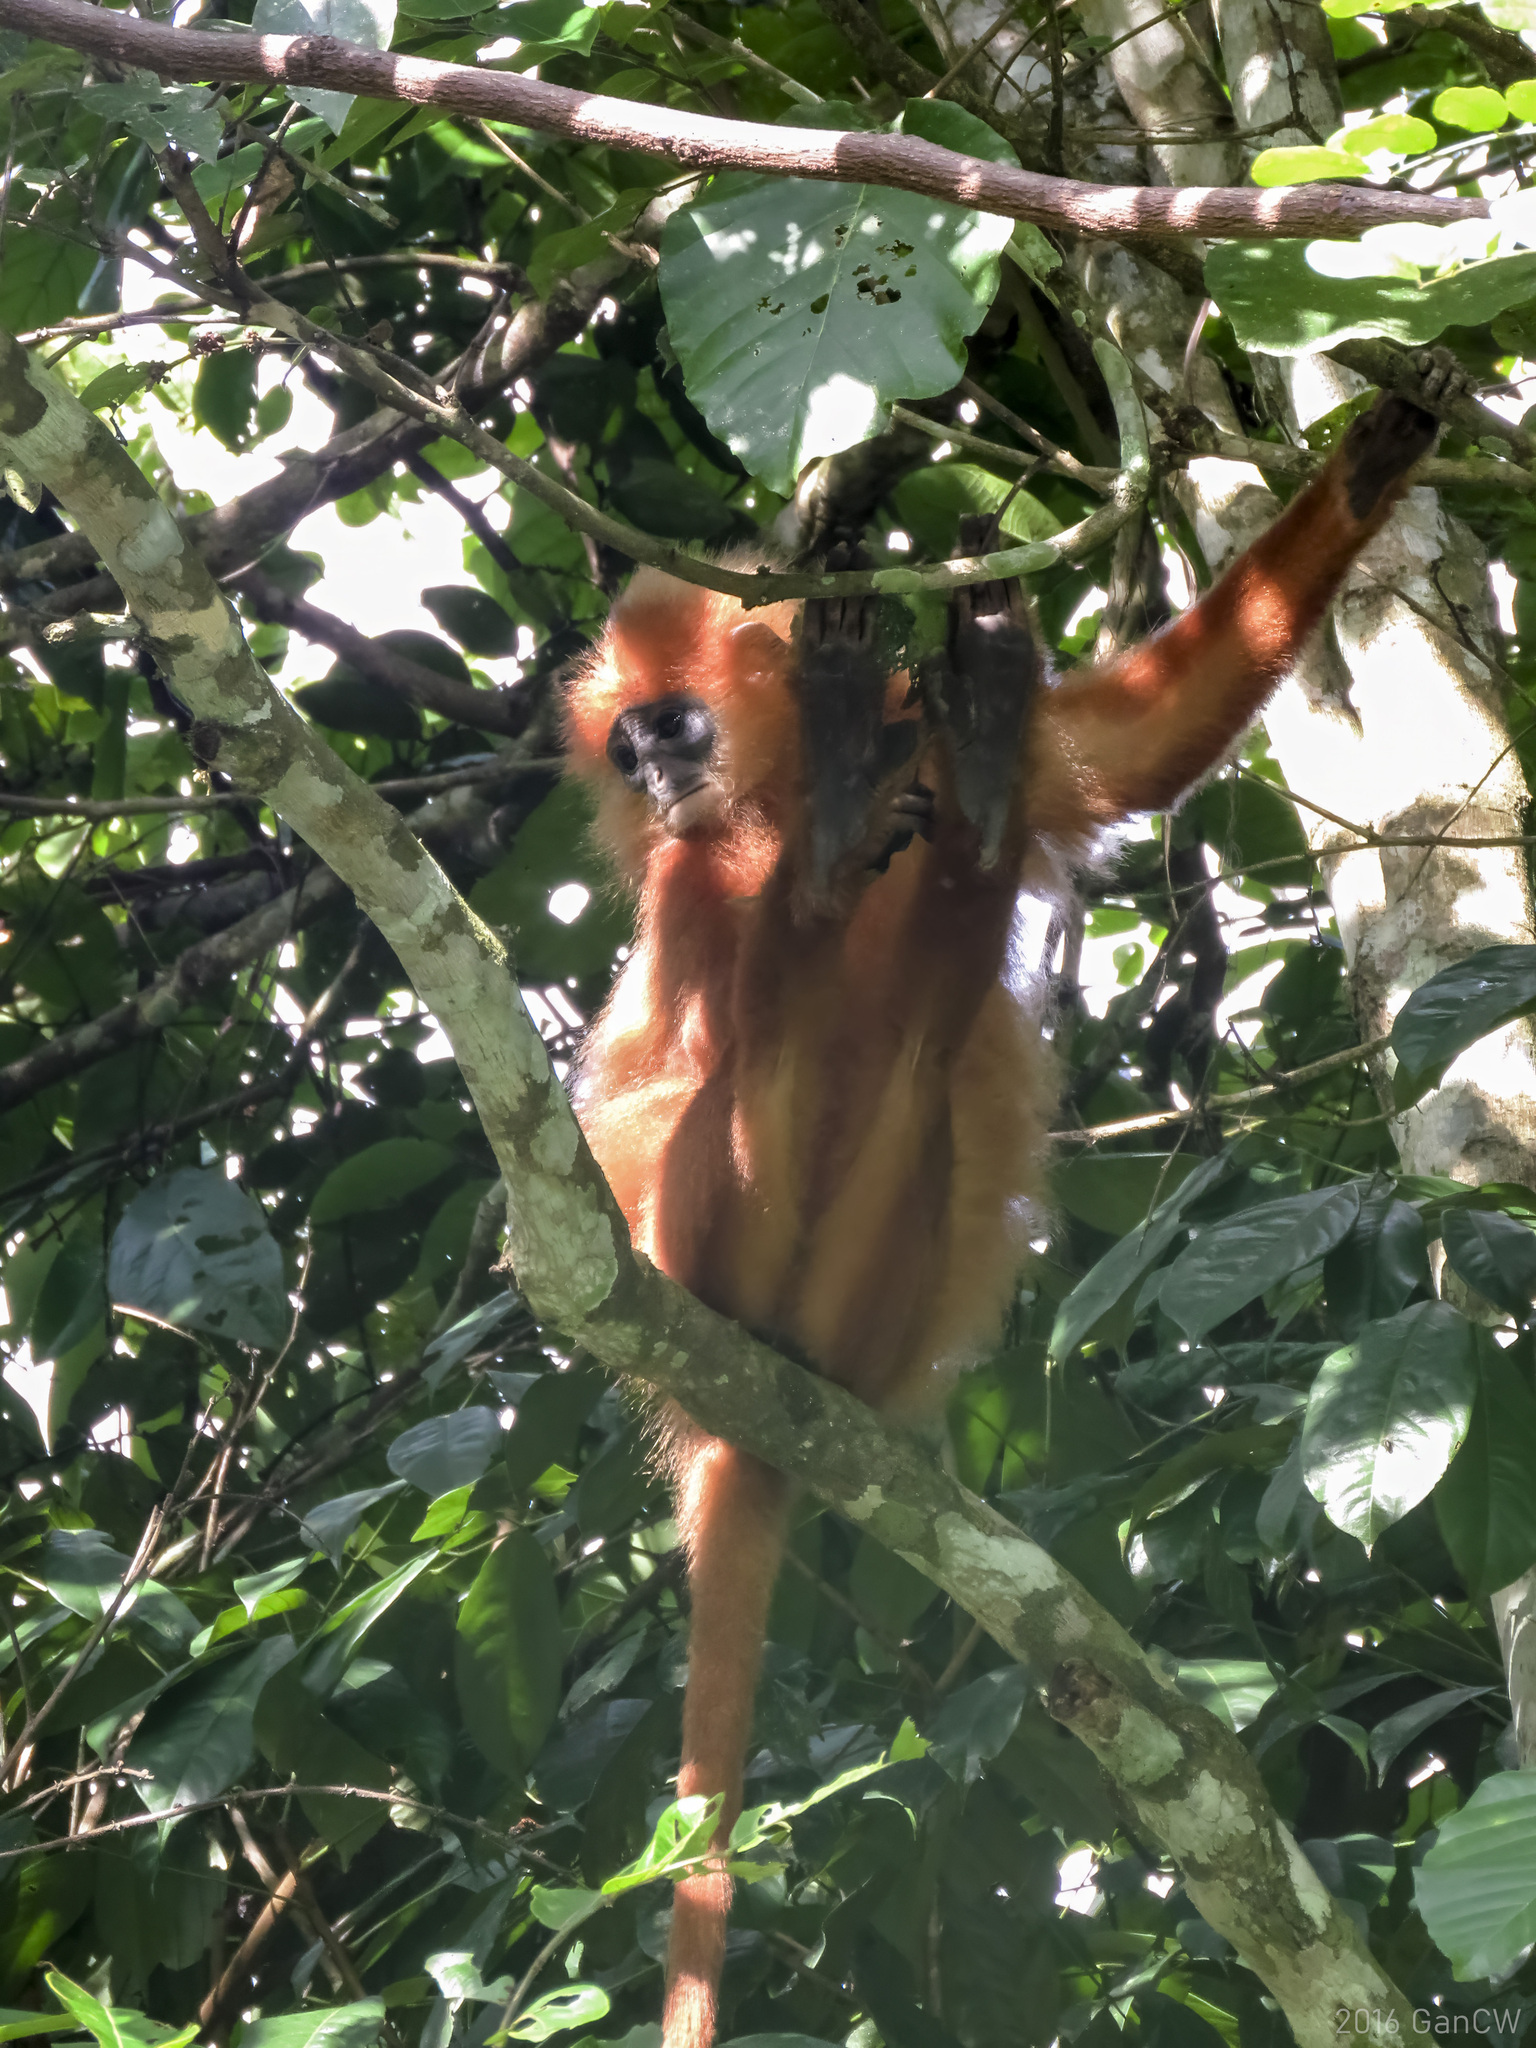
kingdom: Animalia
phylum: Chordata
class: Mammalia
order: Primates
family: Cercopithecidae
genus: Presbytis
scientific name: Presbytis rubicunda
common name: Maroon leaf monkey
